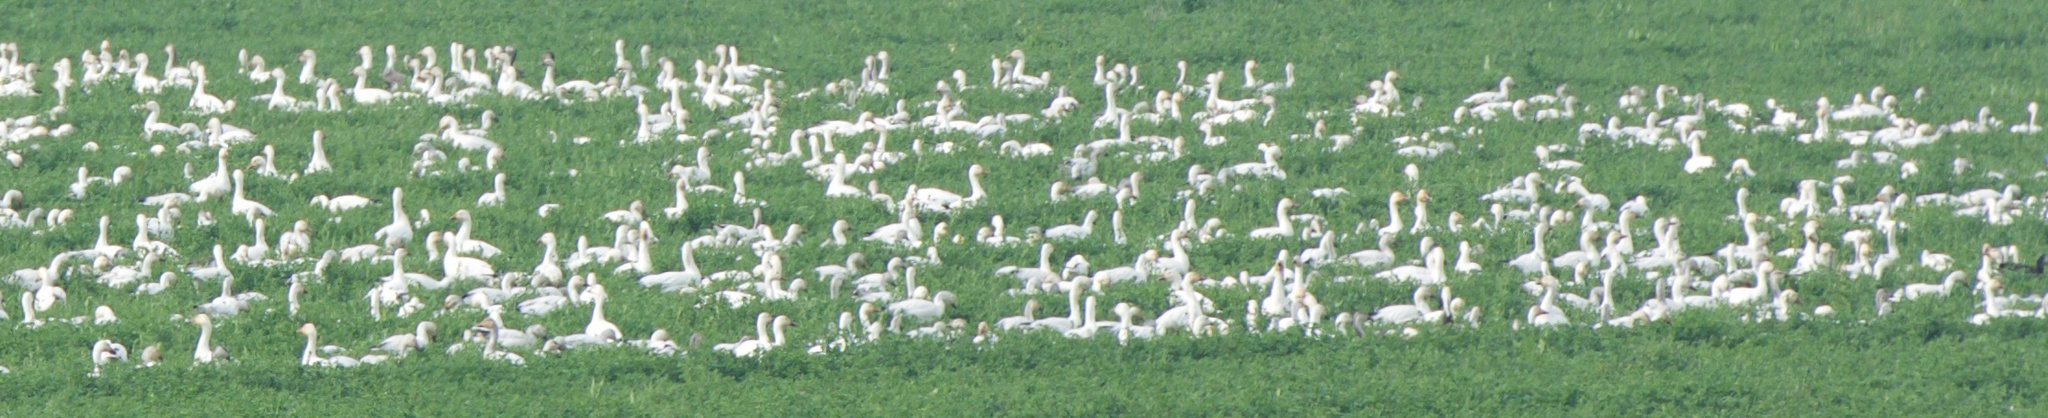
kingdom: Animalia
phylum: Chordata
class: Aves
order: Anseriformes
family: Anatidae
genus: Anser
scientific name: Anser caerulescens
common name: Snow goose
